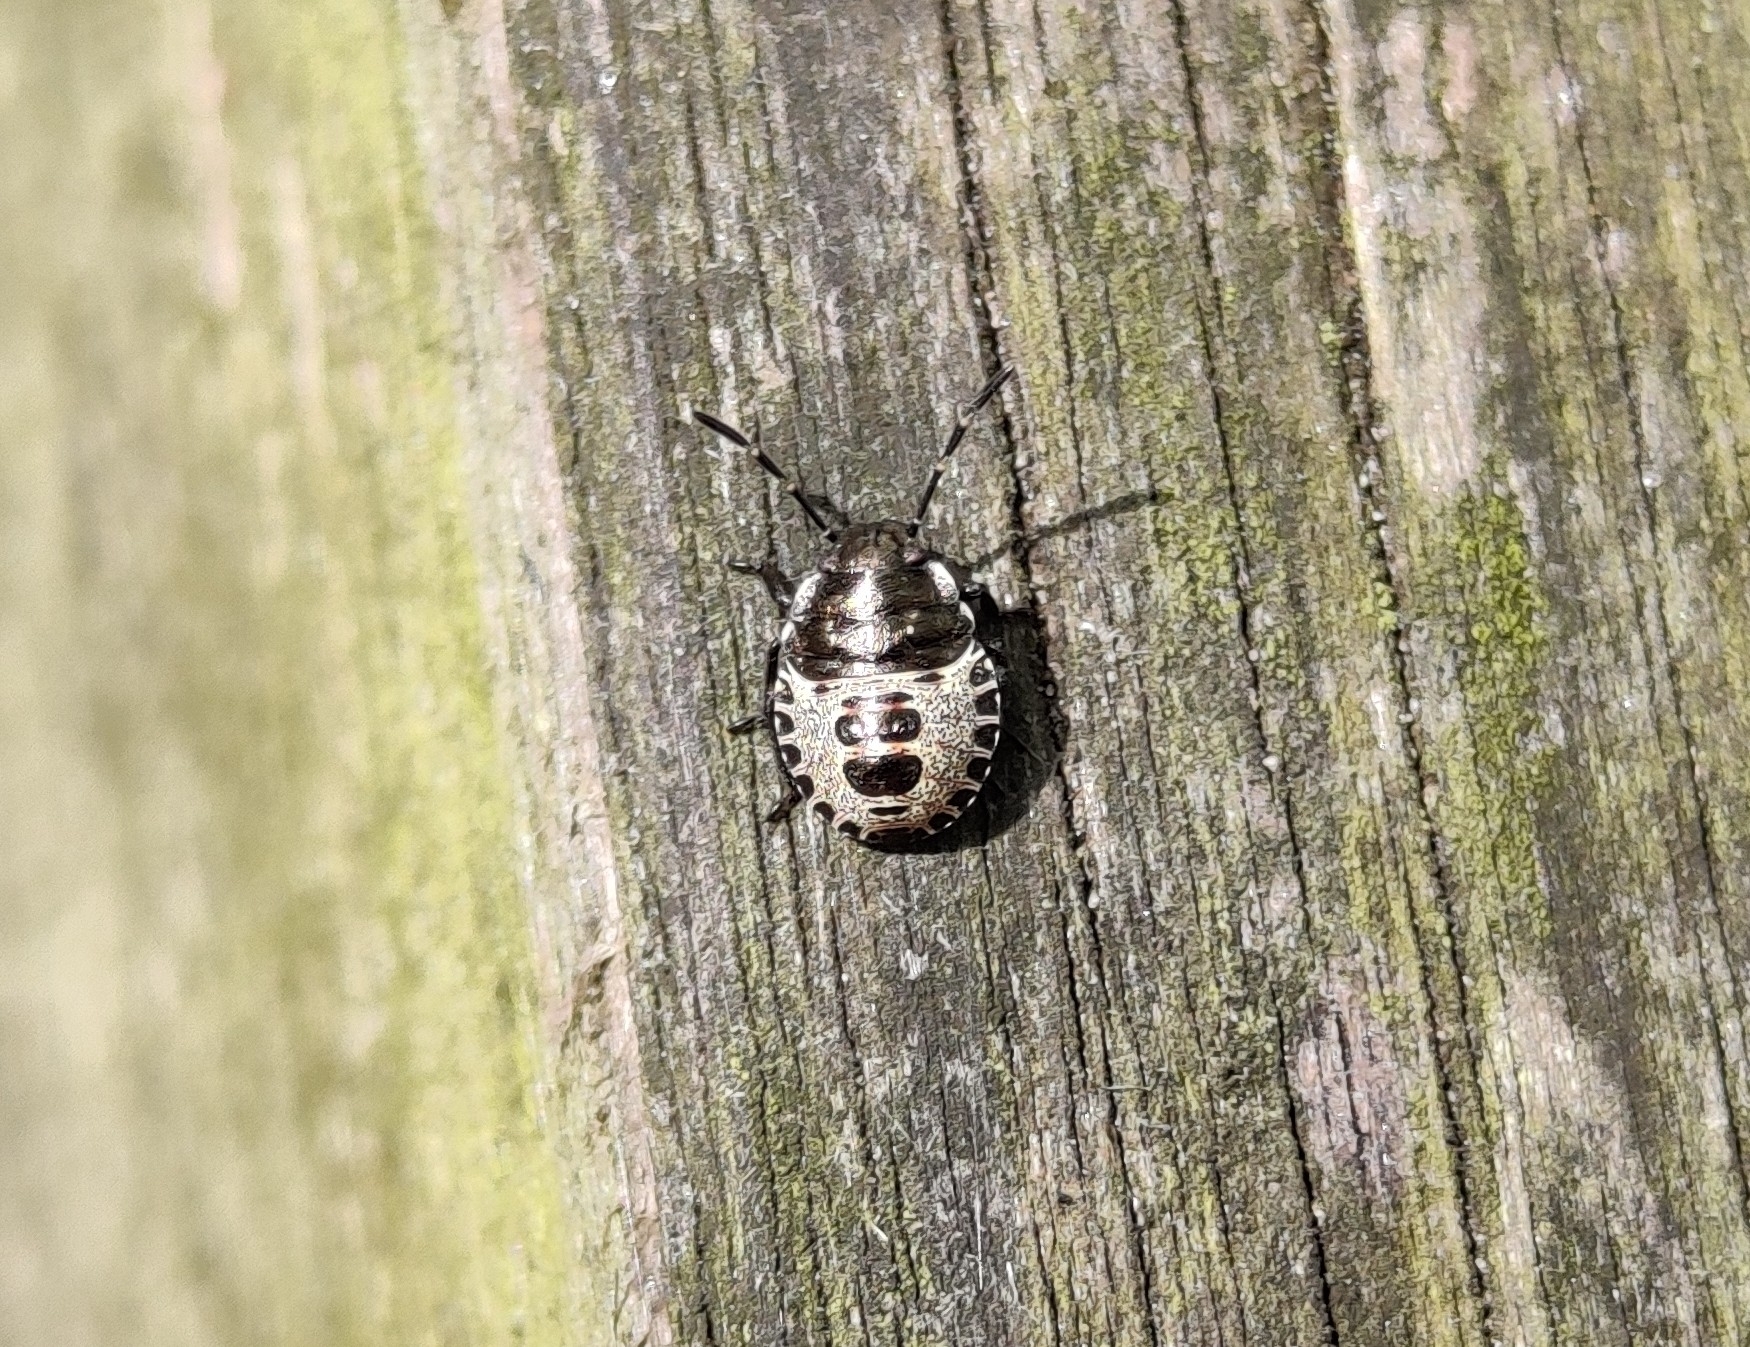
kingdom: Animalia
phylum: Arthropoda
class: Insecta
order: Hemiptera
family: Pentatomidae
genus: Rhaphigaster
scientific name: Rhaphigaster nebulosa
